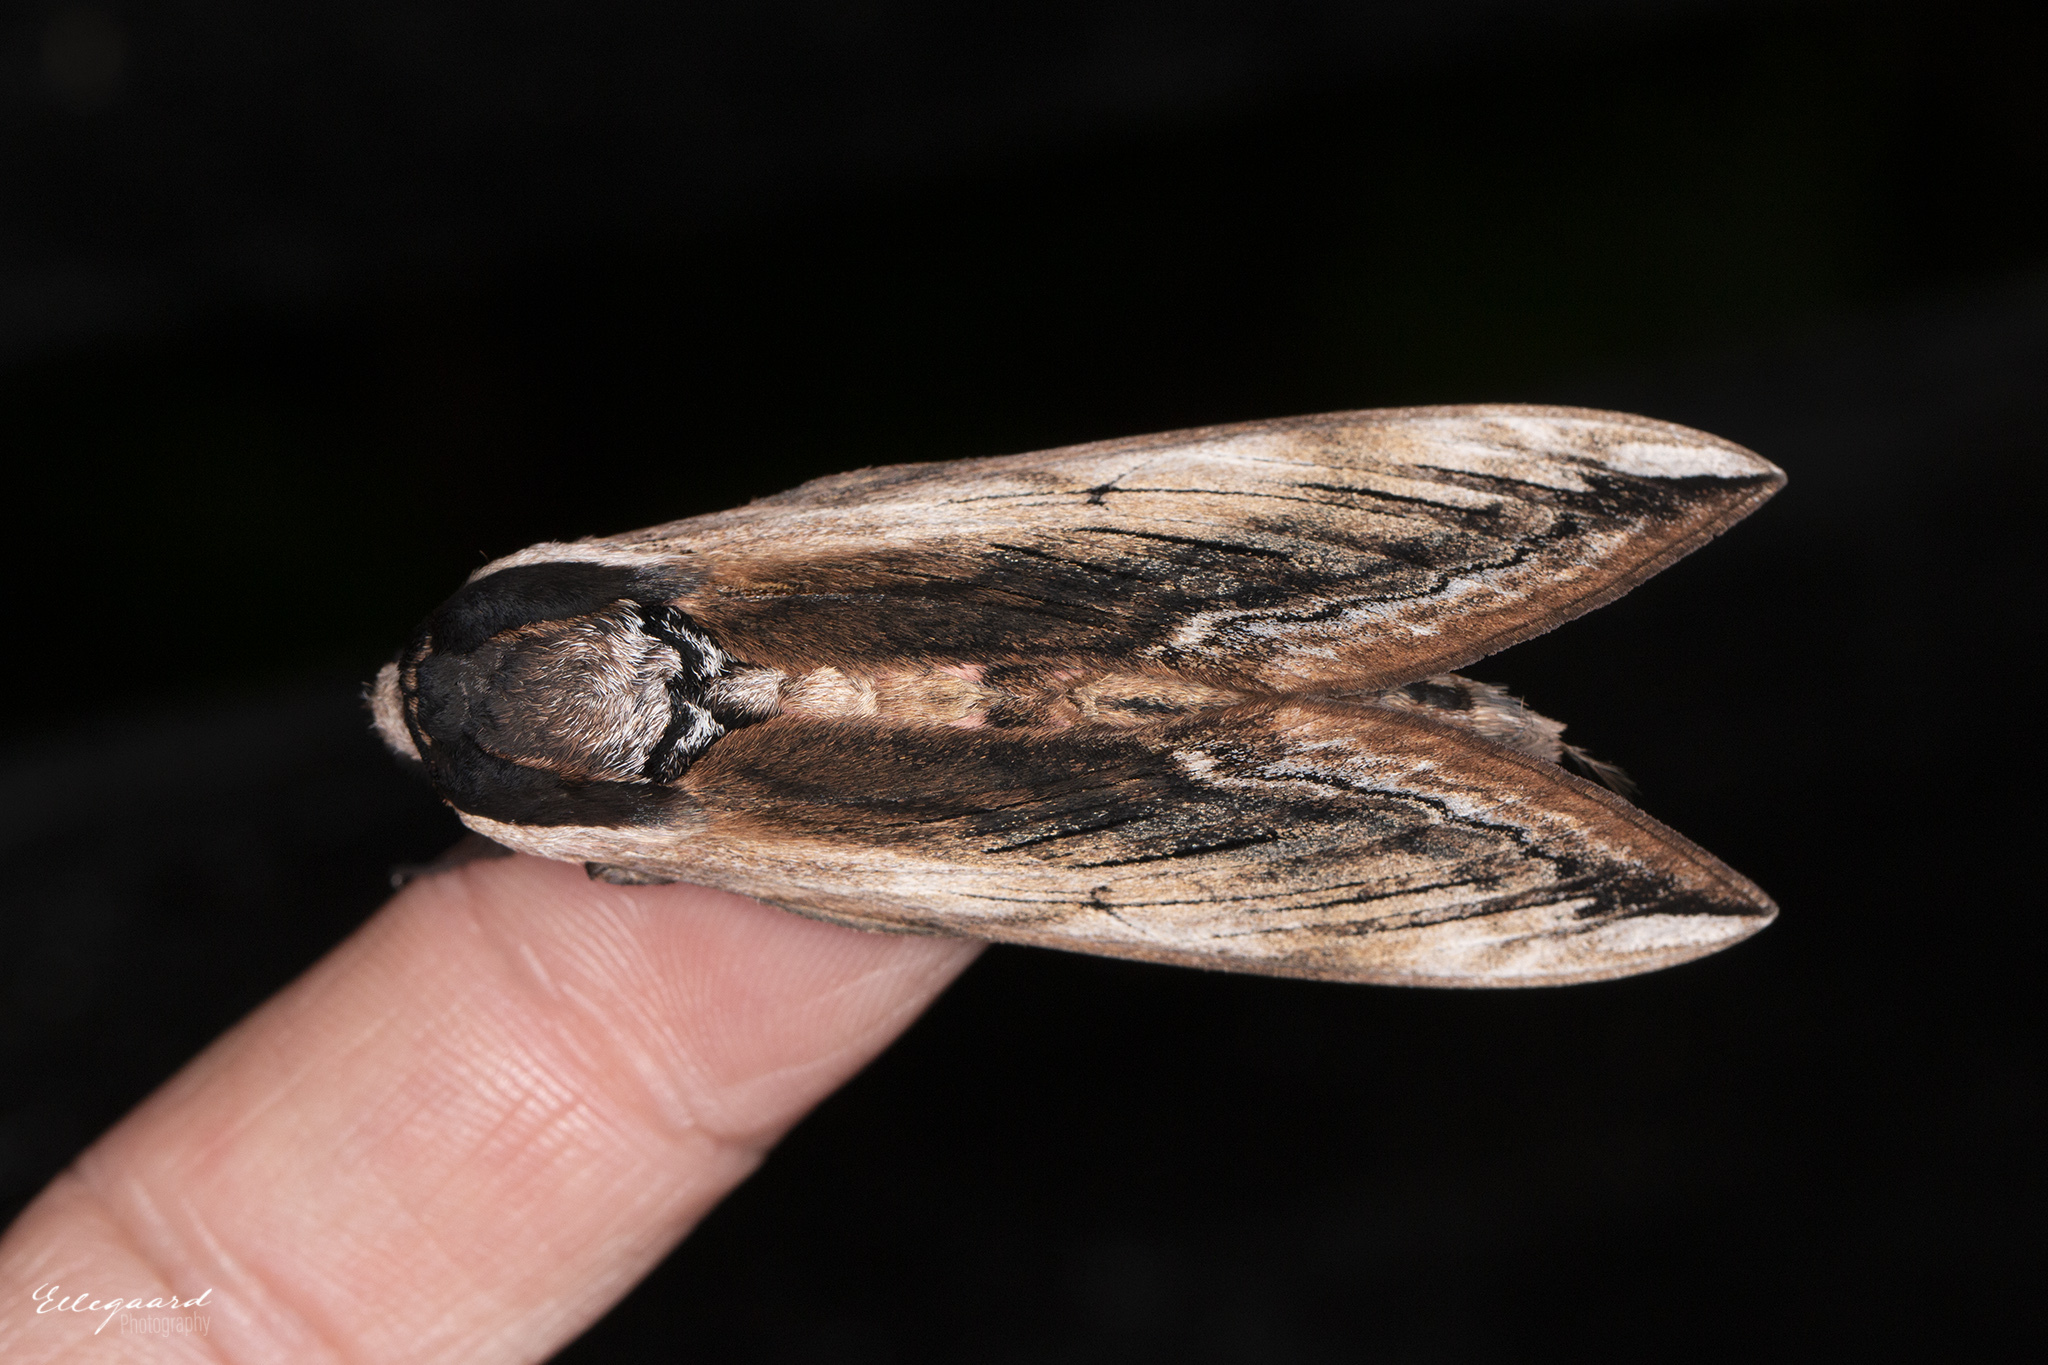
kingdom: Animalia
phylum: Arthropoda
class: Insecta
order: Lepidoptera
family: Sphingidae
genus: Sphinx
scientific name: Sphinx ligustri
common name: Privet hawk-moth
